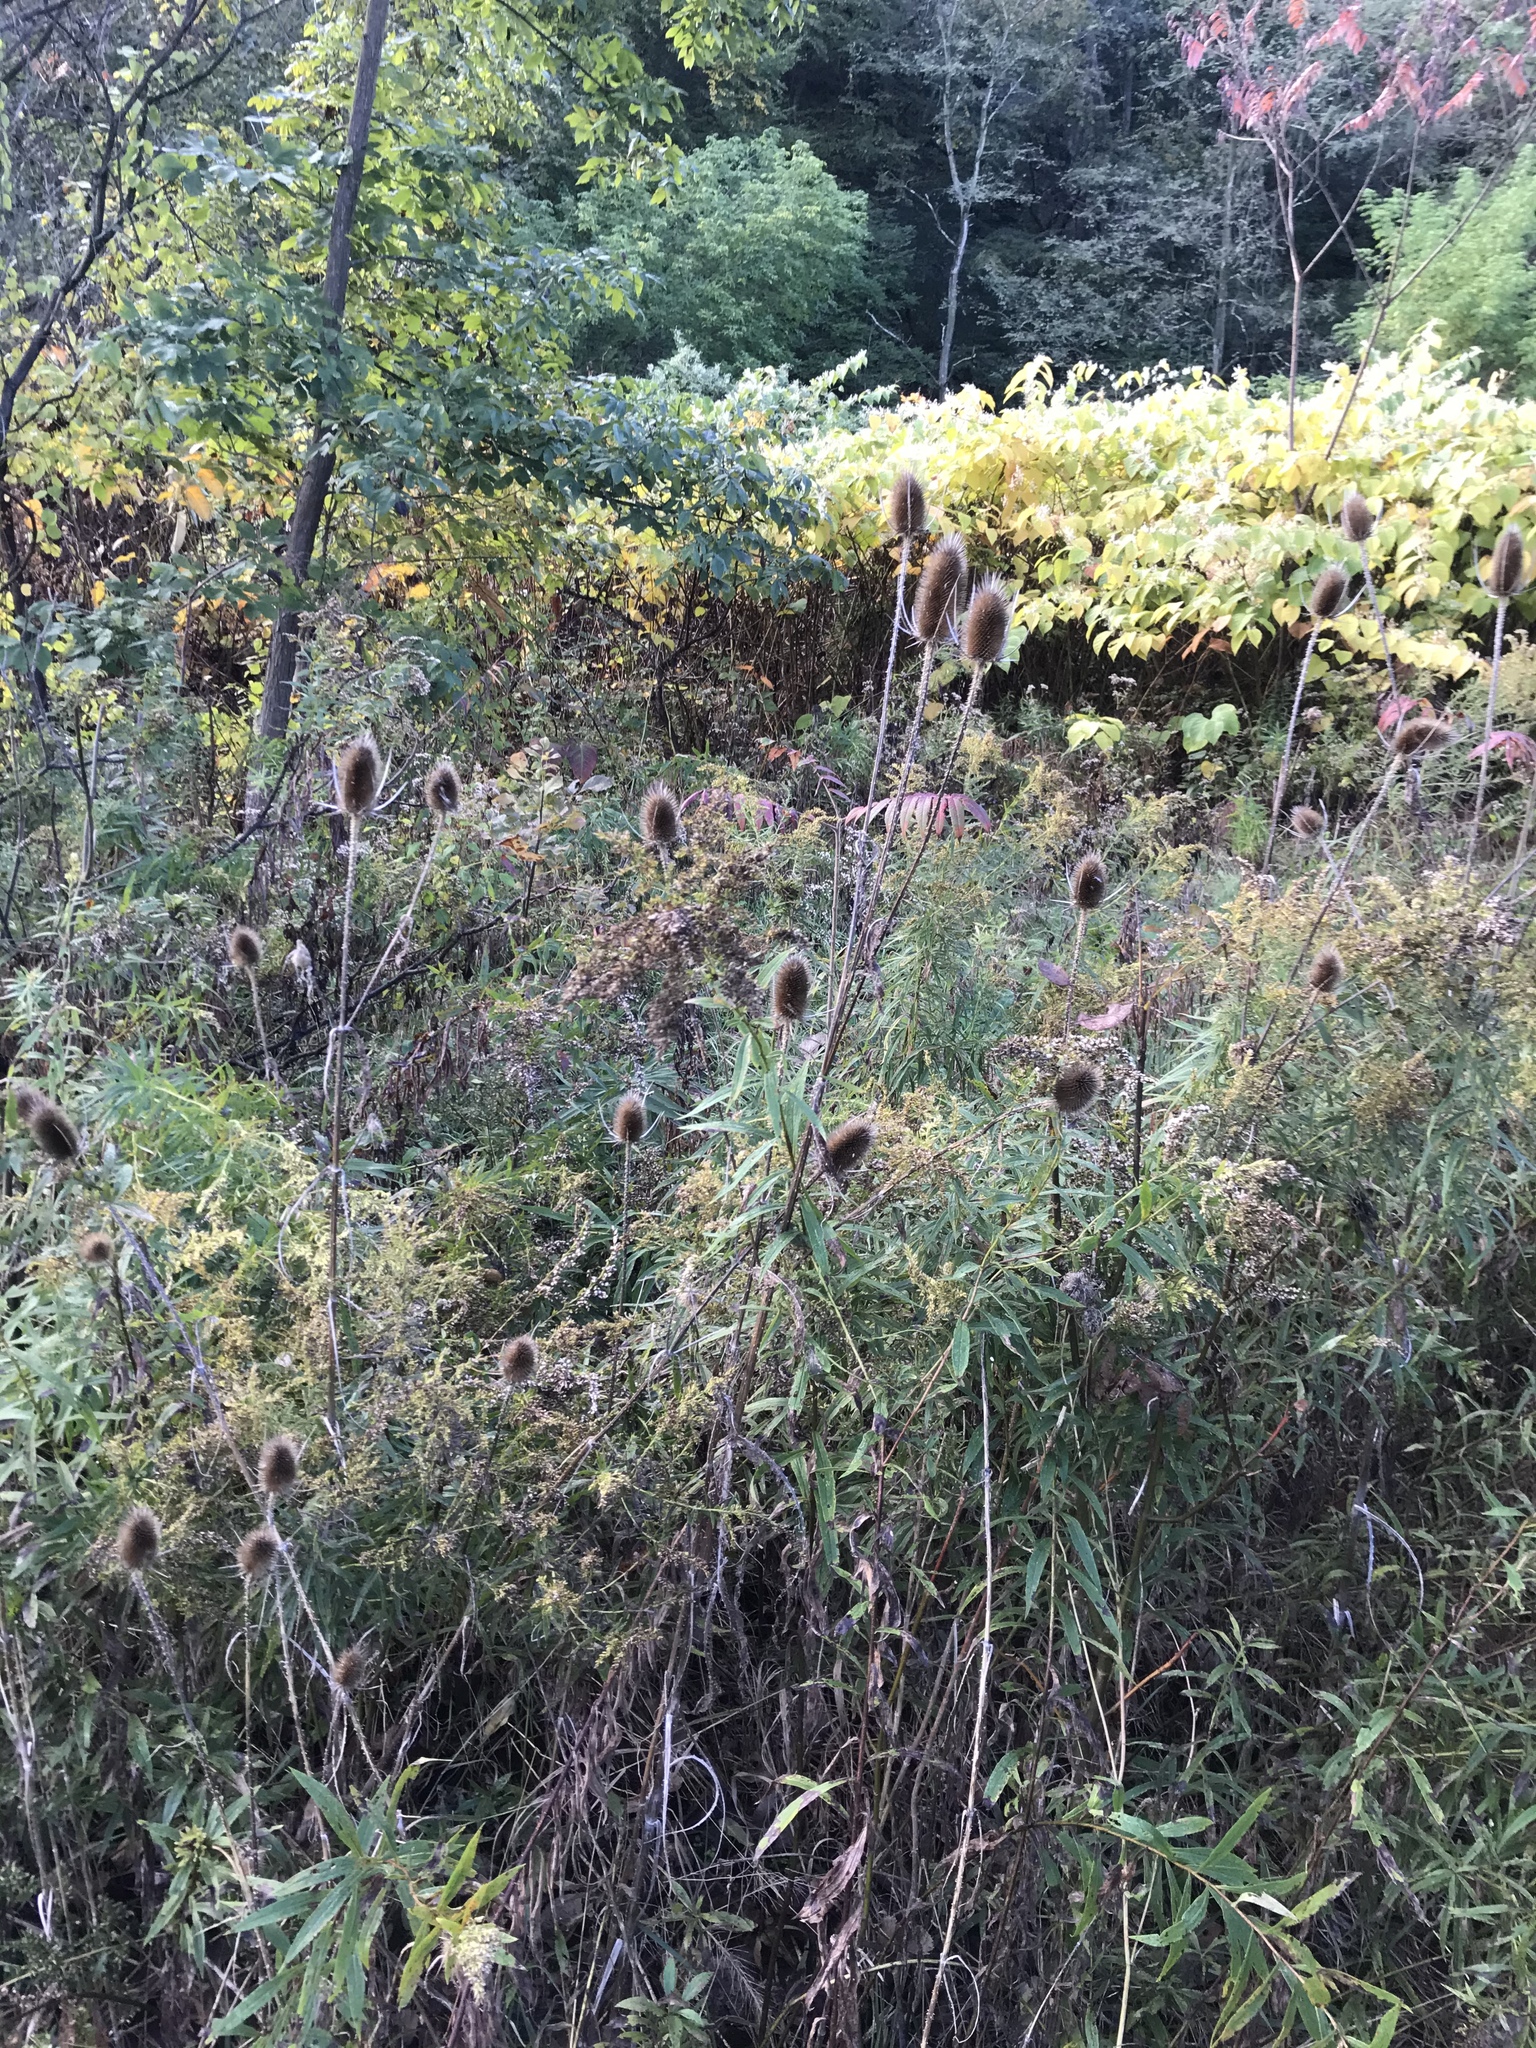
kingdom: Plantae
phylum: Tracheophyta
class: Magnoliopsida
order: Dipsacales
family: Caprifoliaceae
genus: Dipsacus
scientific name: Dipsacus fullonum
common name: Teasel
